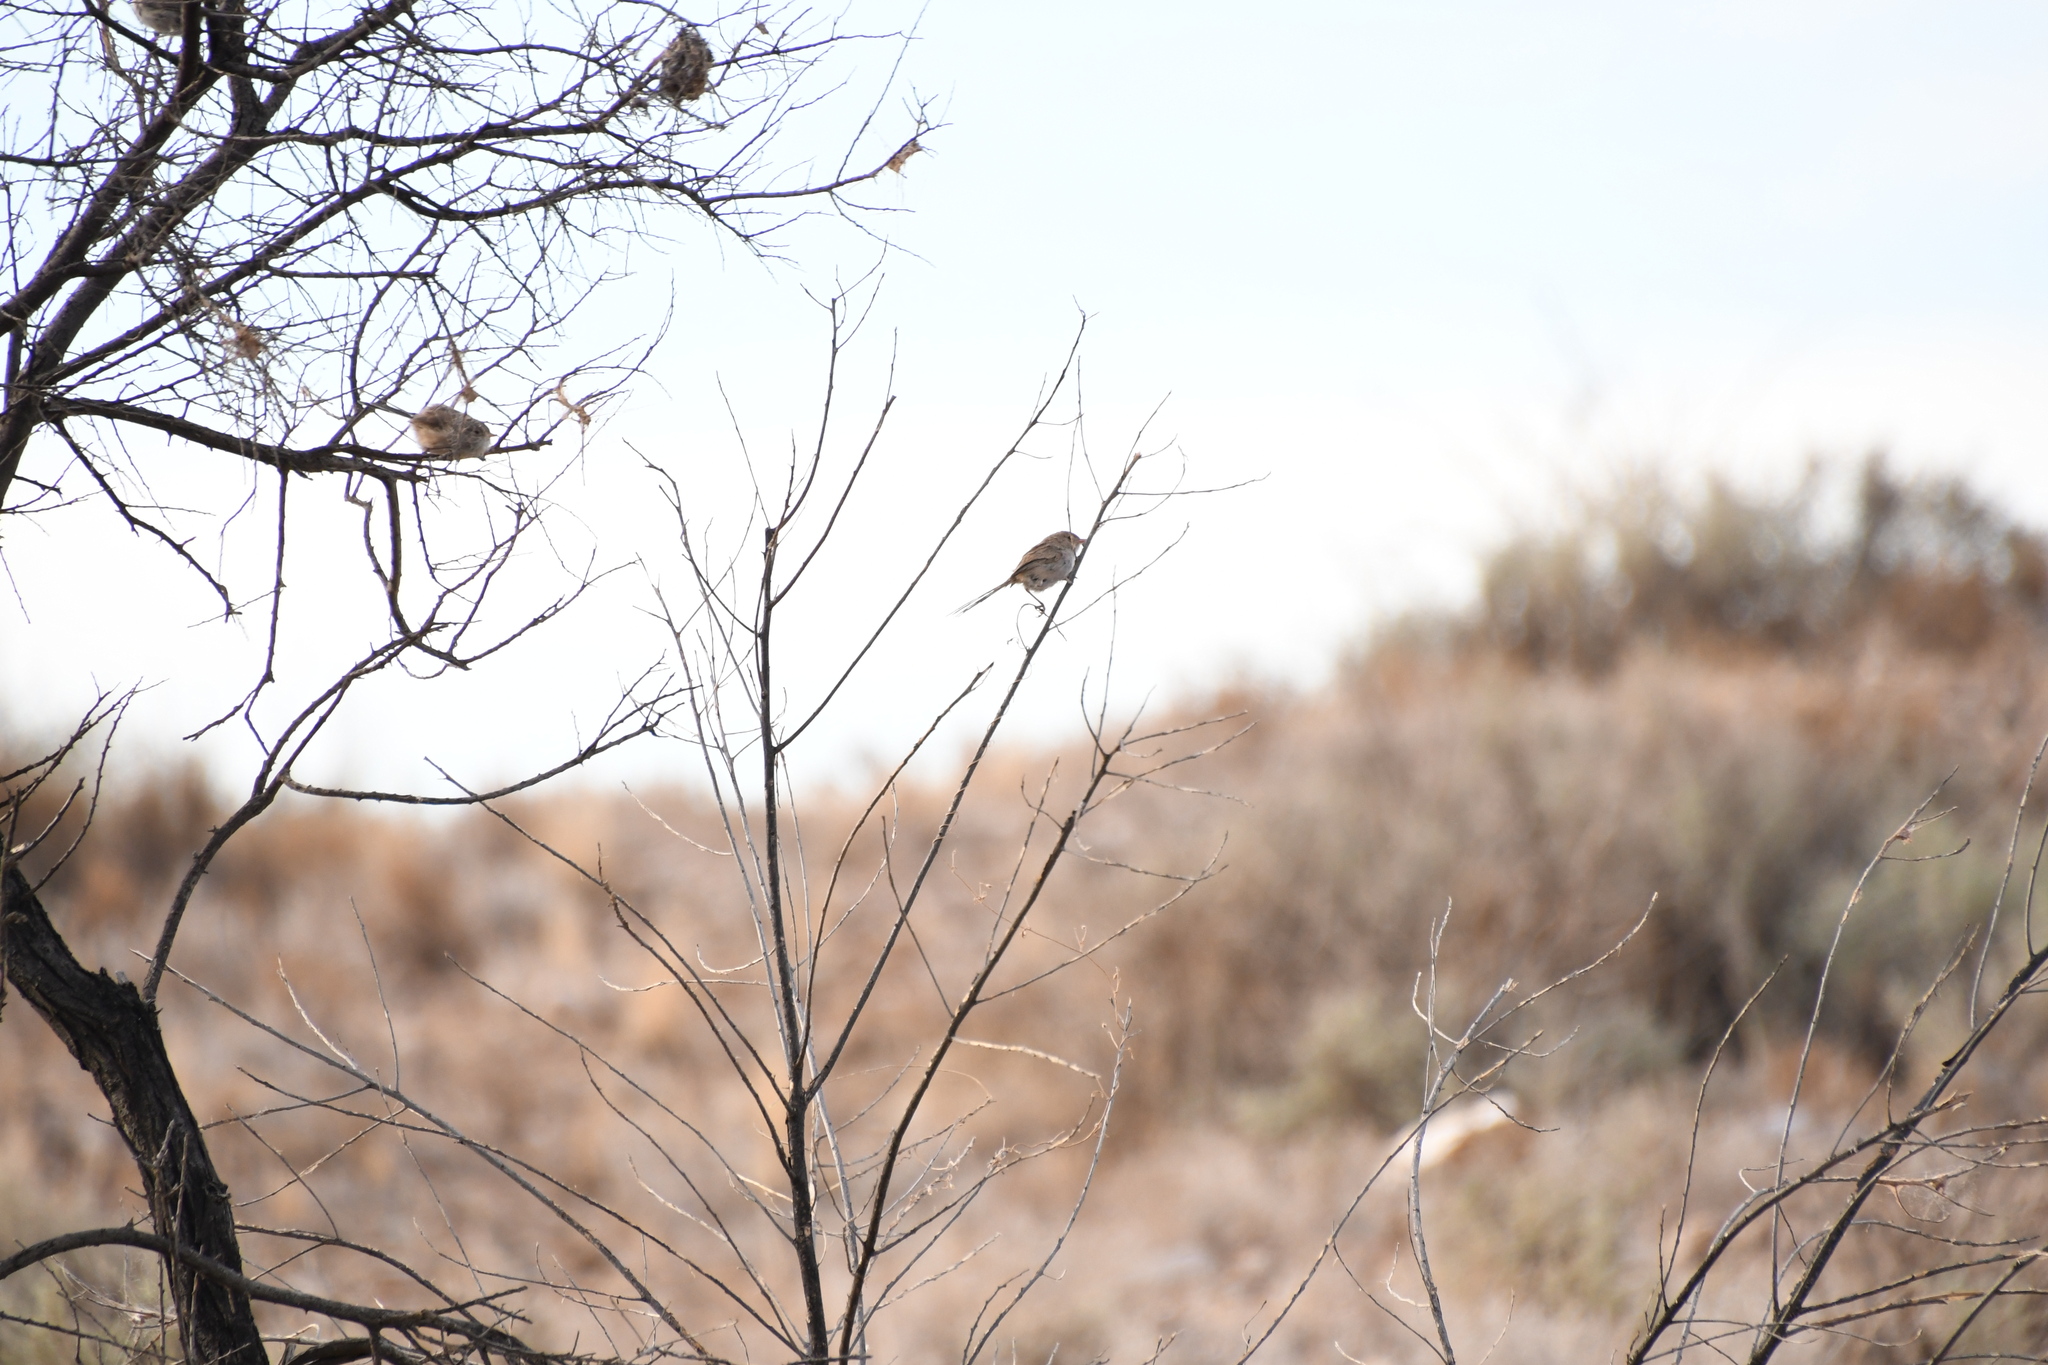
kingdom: Animalia
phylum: Chordata
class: Aves
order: Passeriformes
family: Maluridae
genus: Malurus
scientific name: Malurus leucopterus
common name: White-winged fairywren
